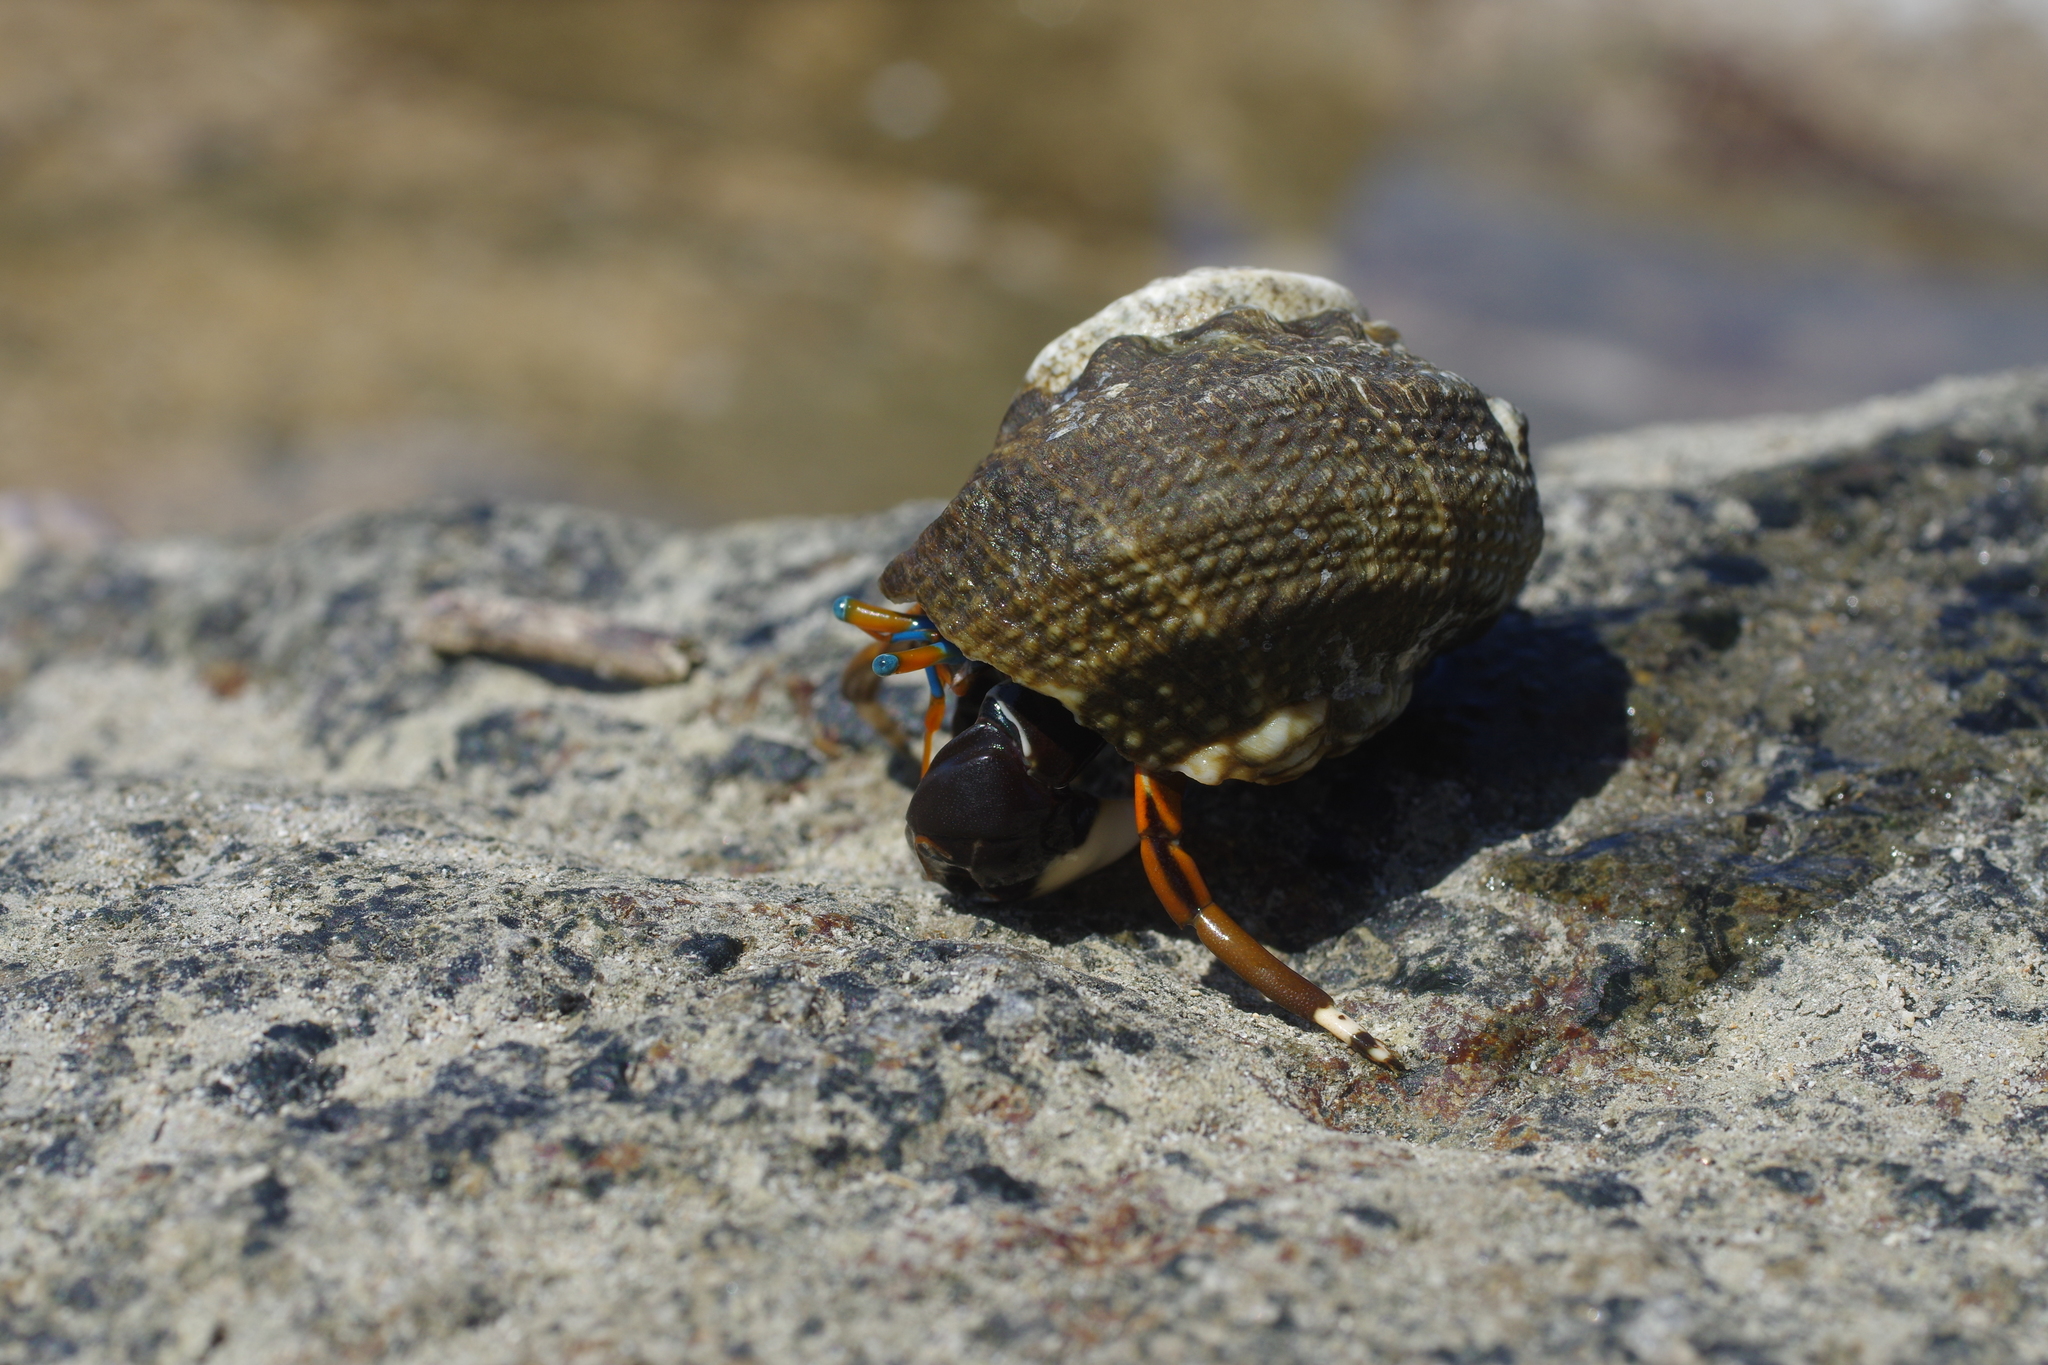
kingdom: Animalia
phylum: Arthropoda
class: Malacostraca
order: Decapoda
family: Diogenidae
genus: Calcinus
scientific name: Calcinus laevimanus
